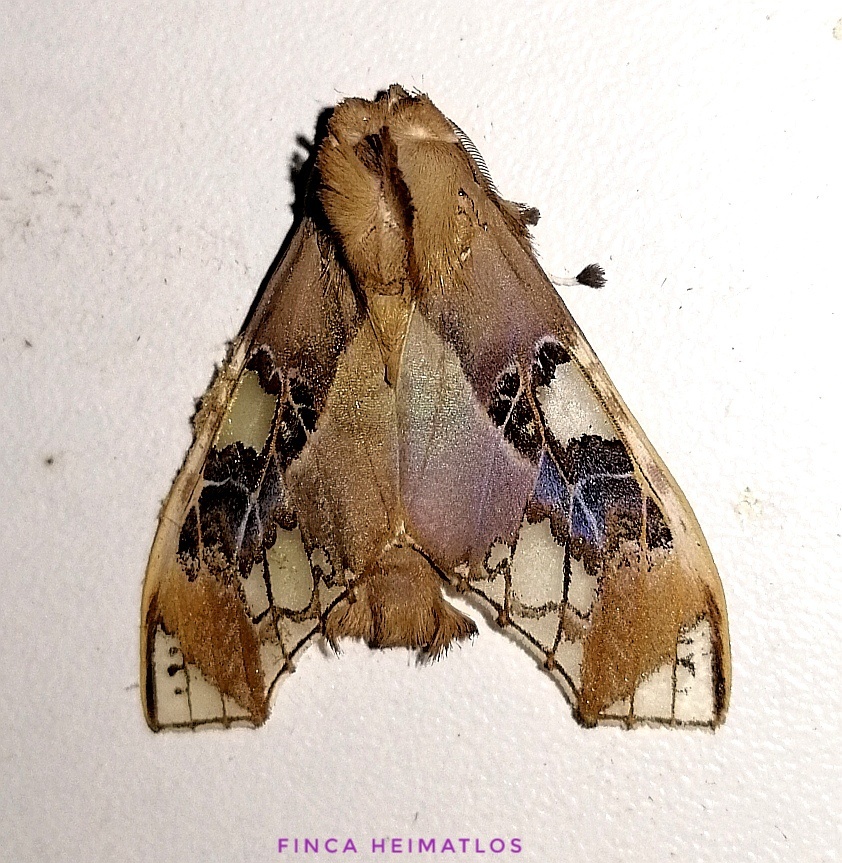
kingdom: Animalia
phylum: Arthropoda
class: Insecta
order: Lepidoptera
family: Erebidae
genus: Parathyris
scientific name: Parathyris cedonulli
